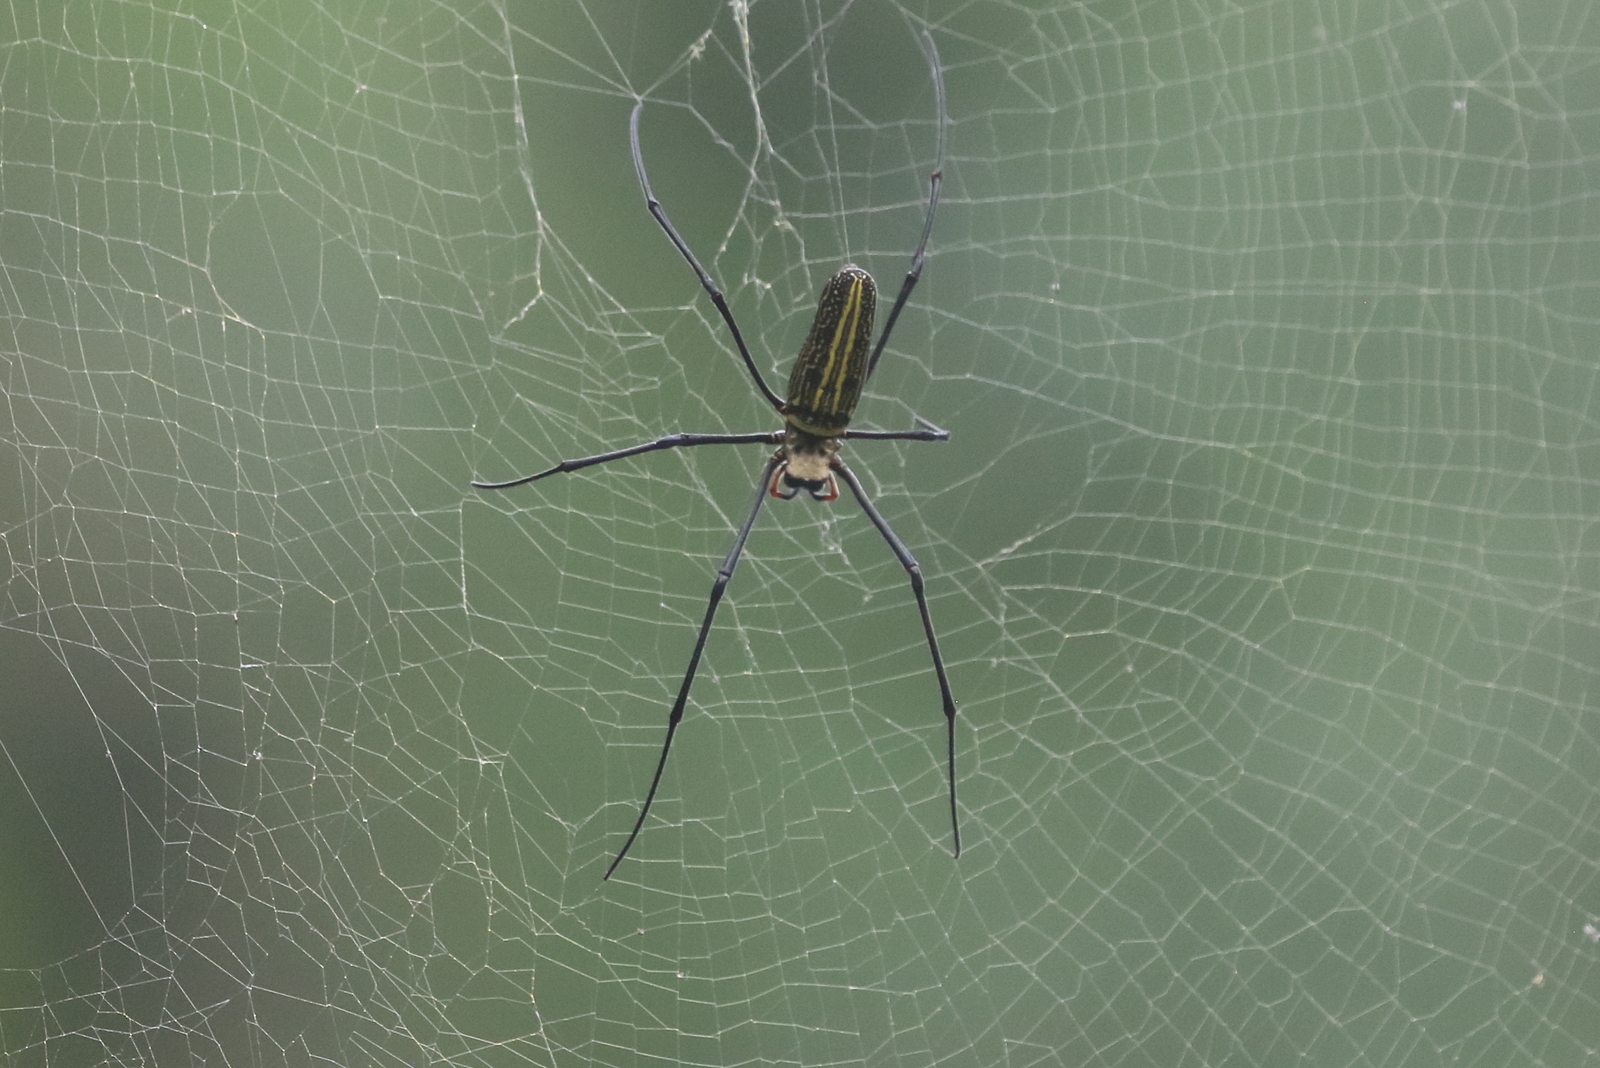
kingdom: Animalia
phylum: Arthropoda
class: Arachnida
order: Araneae
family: Araneidae
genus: Nephila
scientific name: Nephila pilipes
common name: Giant golden orb weaver
